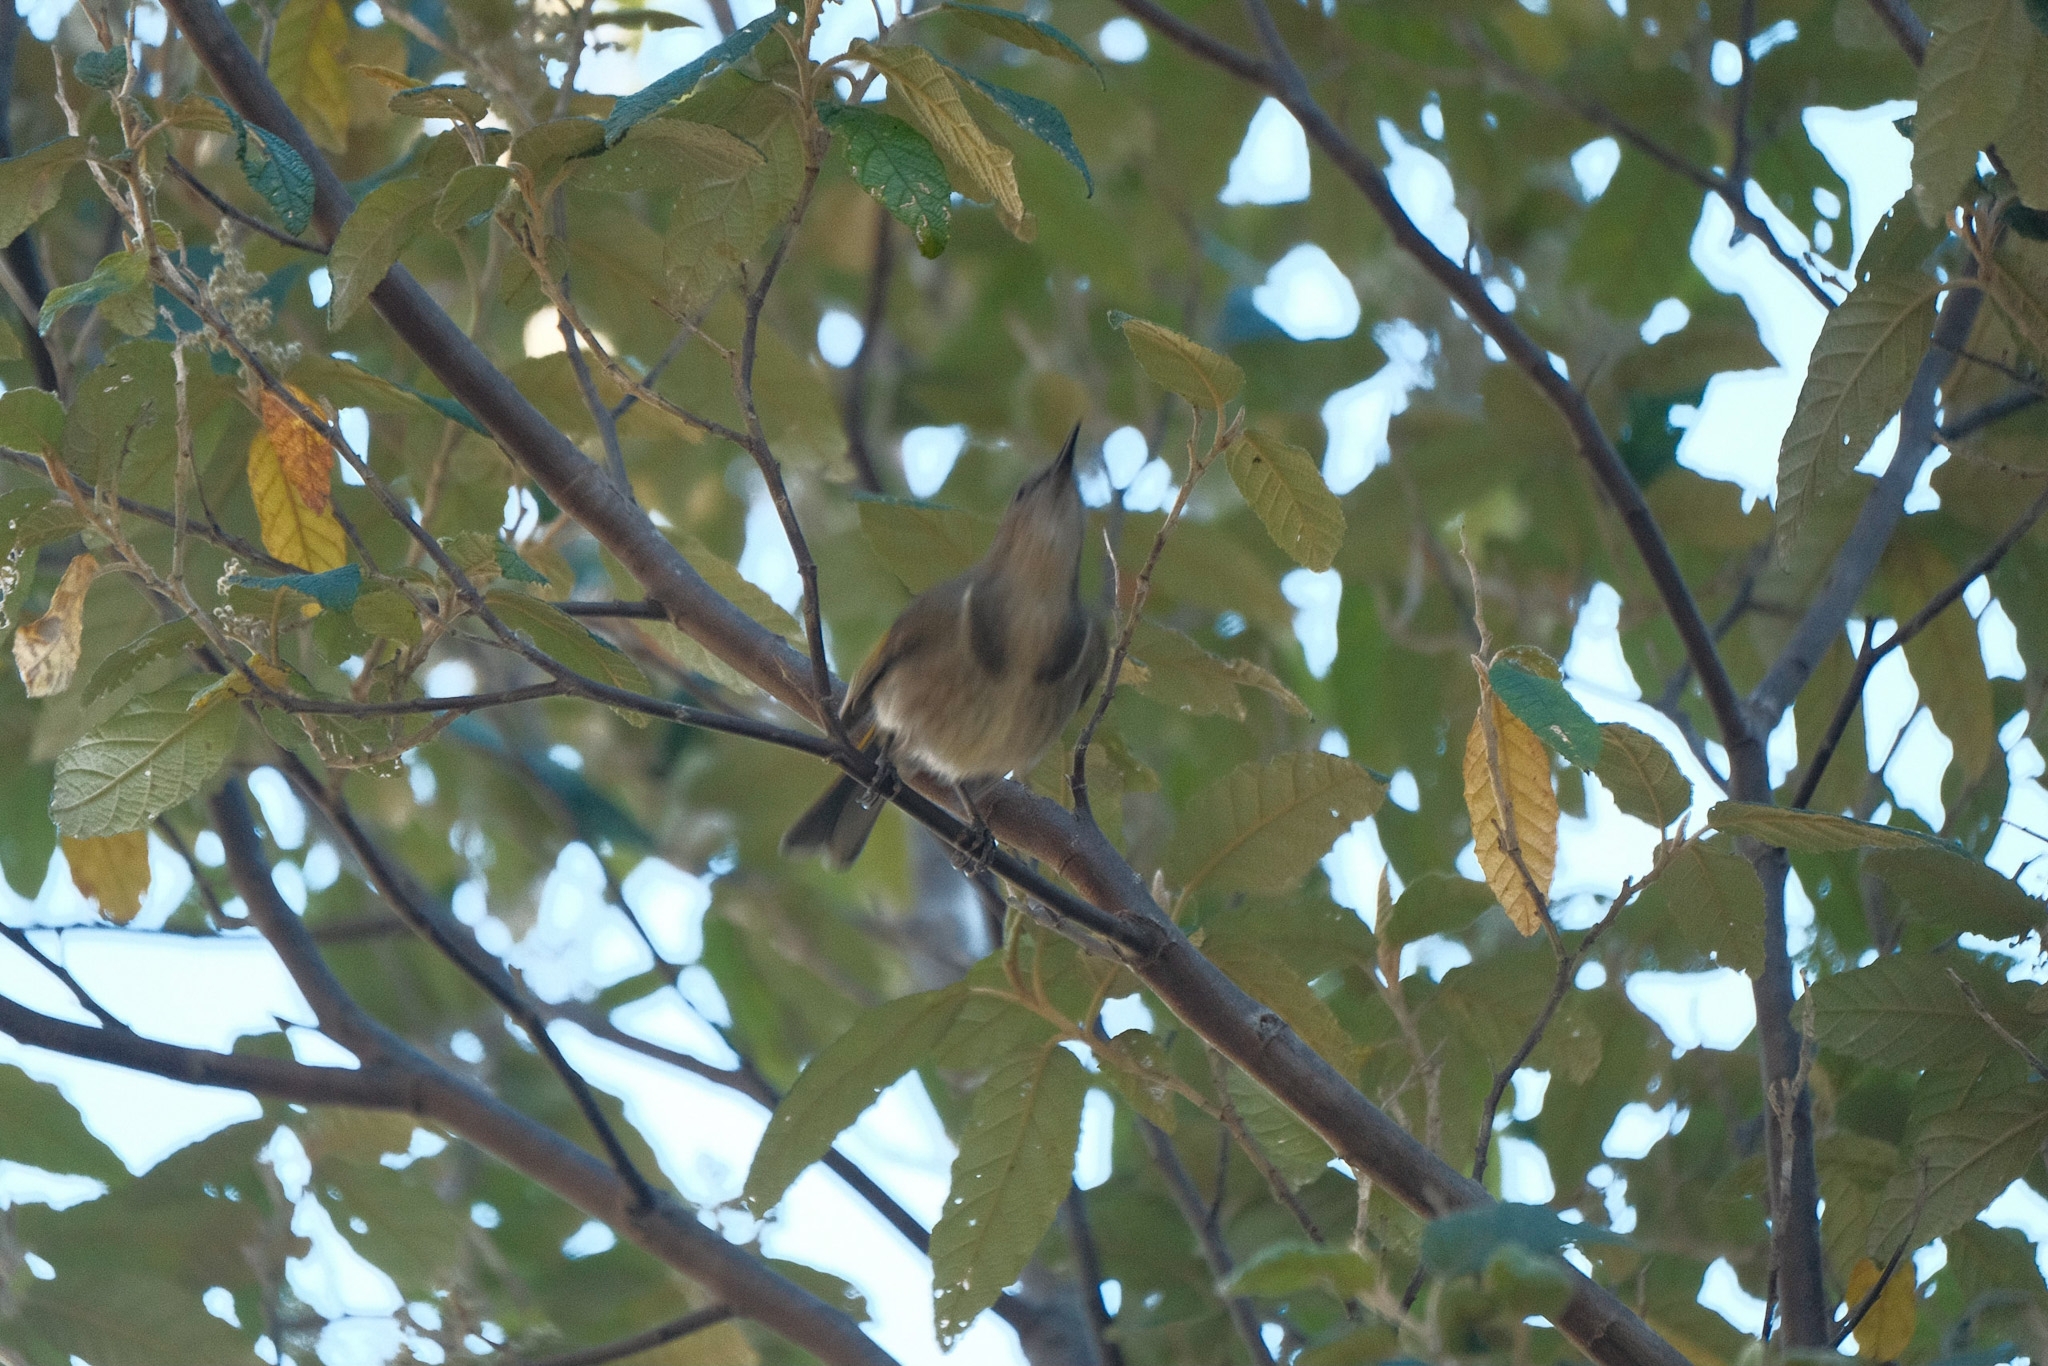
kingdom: Animalia
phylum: Chordata
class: Aves
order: Passeriformes
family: Meliphagidae
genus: Phylidonyris
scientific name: Phylidonyris pyrrhopterus
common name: Crescent honeyeater
